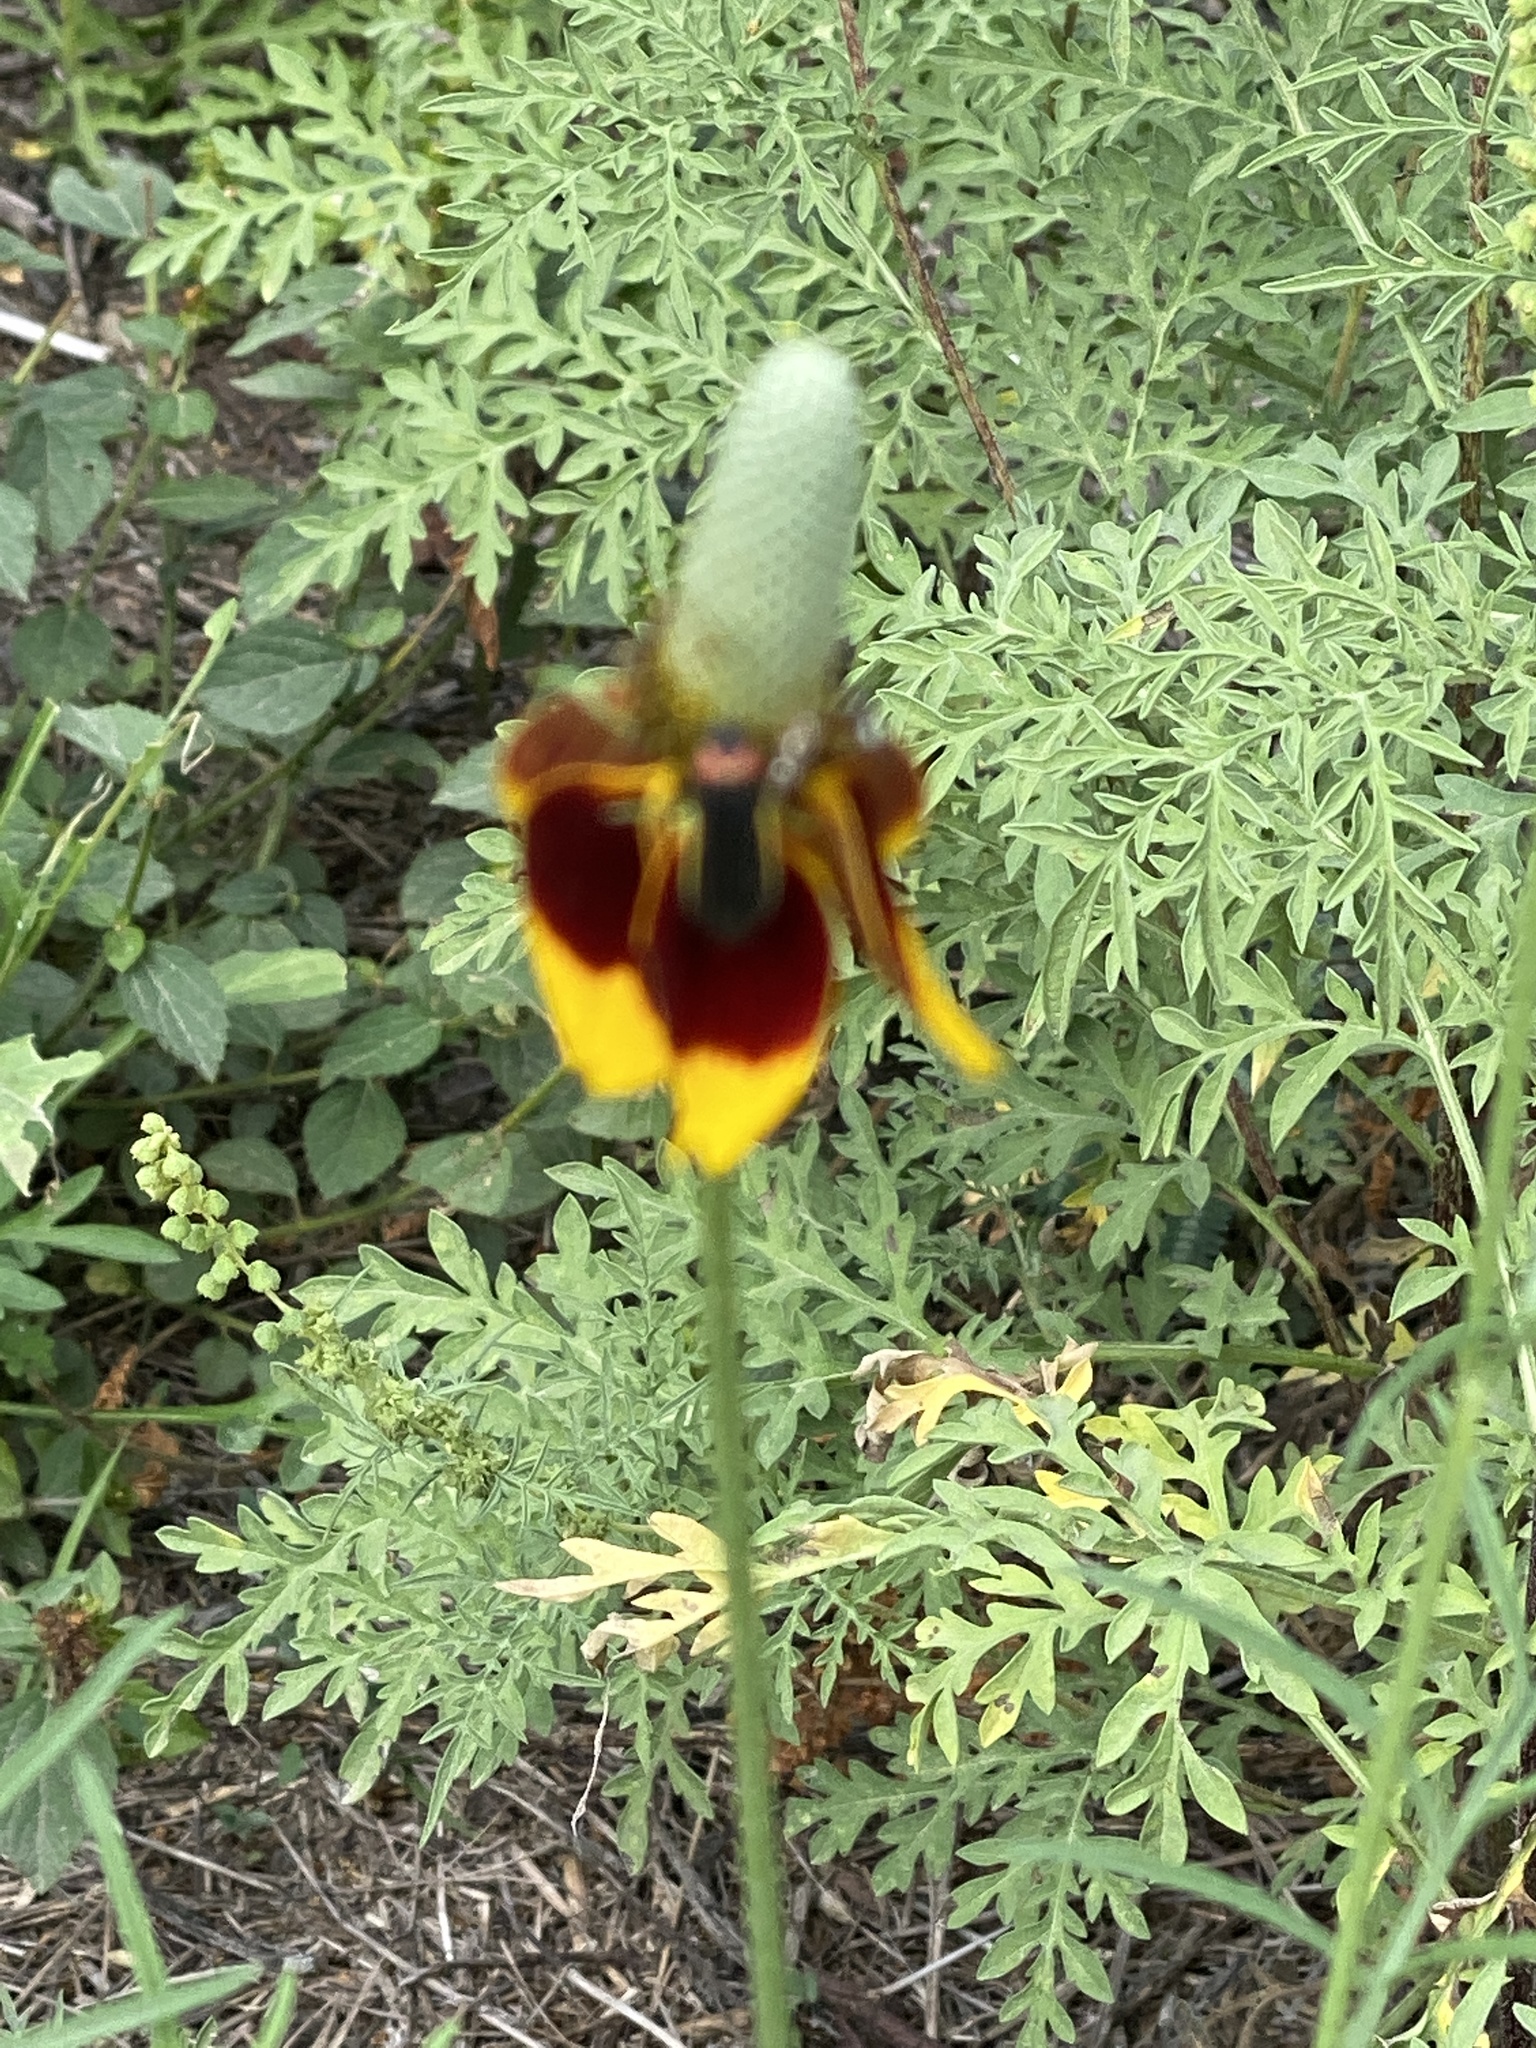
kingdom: Plantae
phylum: Tracheophyta
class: Magnoliopsida
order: Asterales
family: Asteraceae
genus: Ratibida
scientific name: Ratibida columnifera
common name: Prairie coneflower
